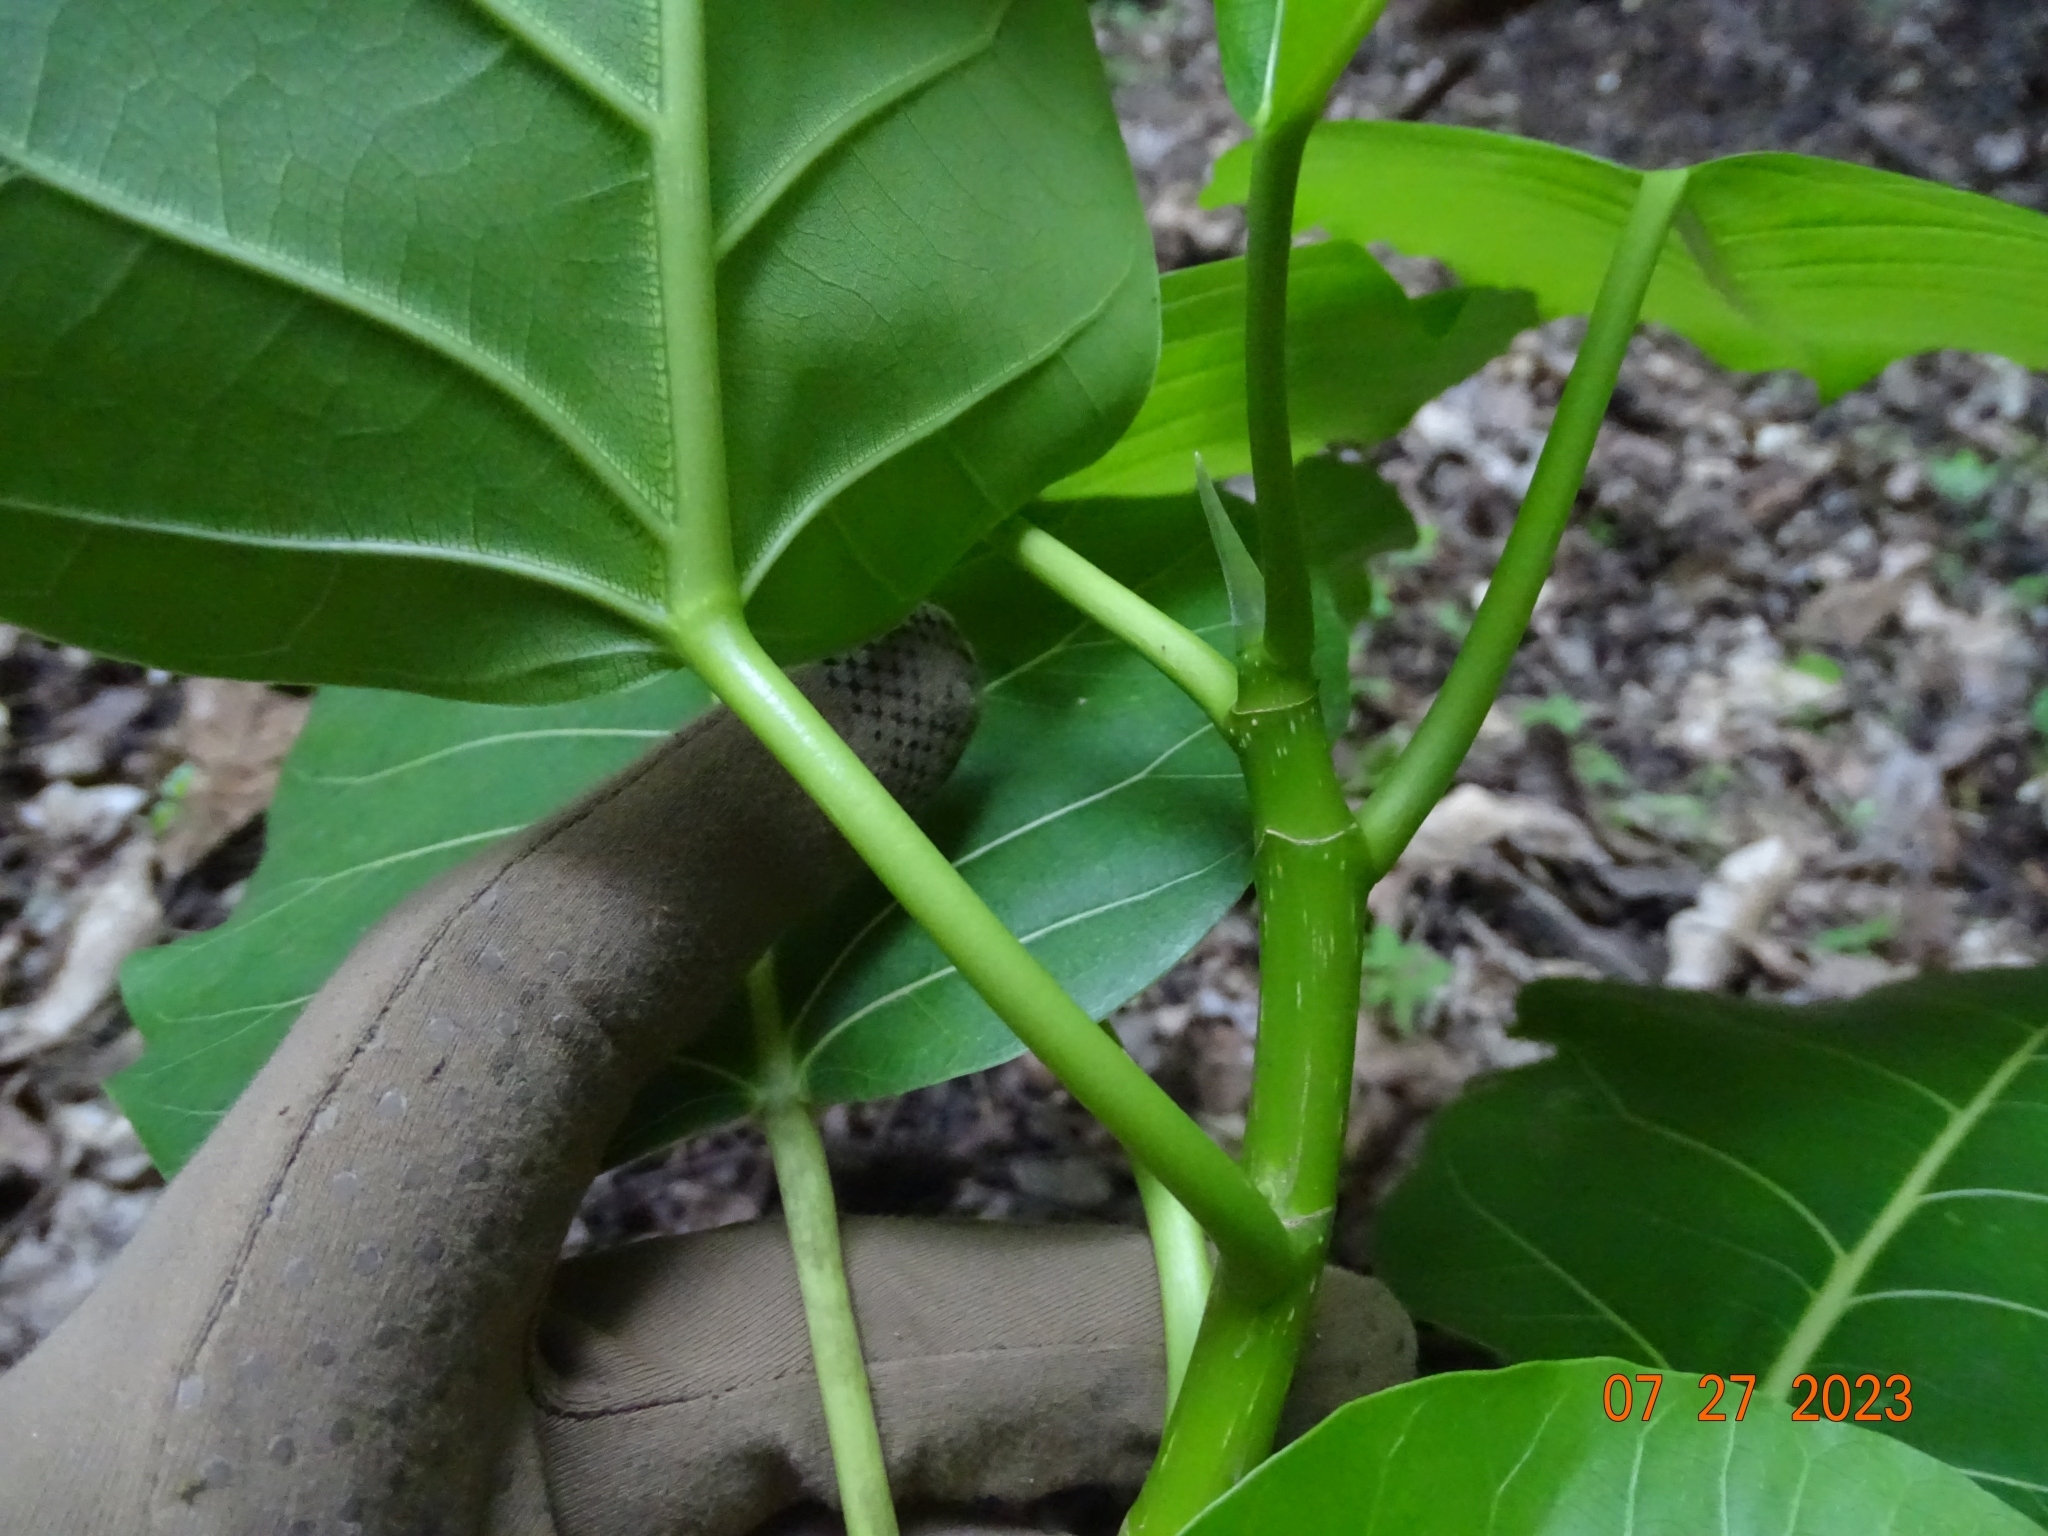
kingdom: Plantae
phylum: Tracheophyta
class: Magnoliopsida
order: Rosales
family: Moraceae
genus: Ficus
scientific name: Ficus membranacea
